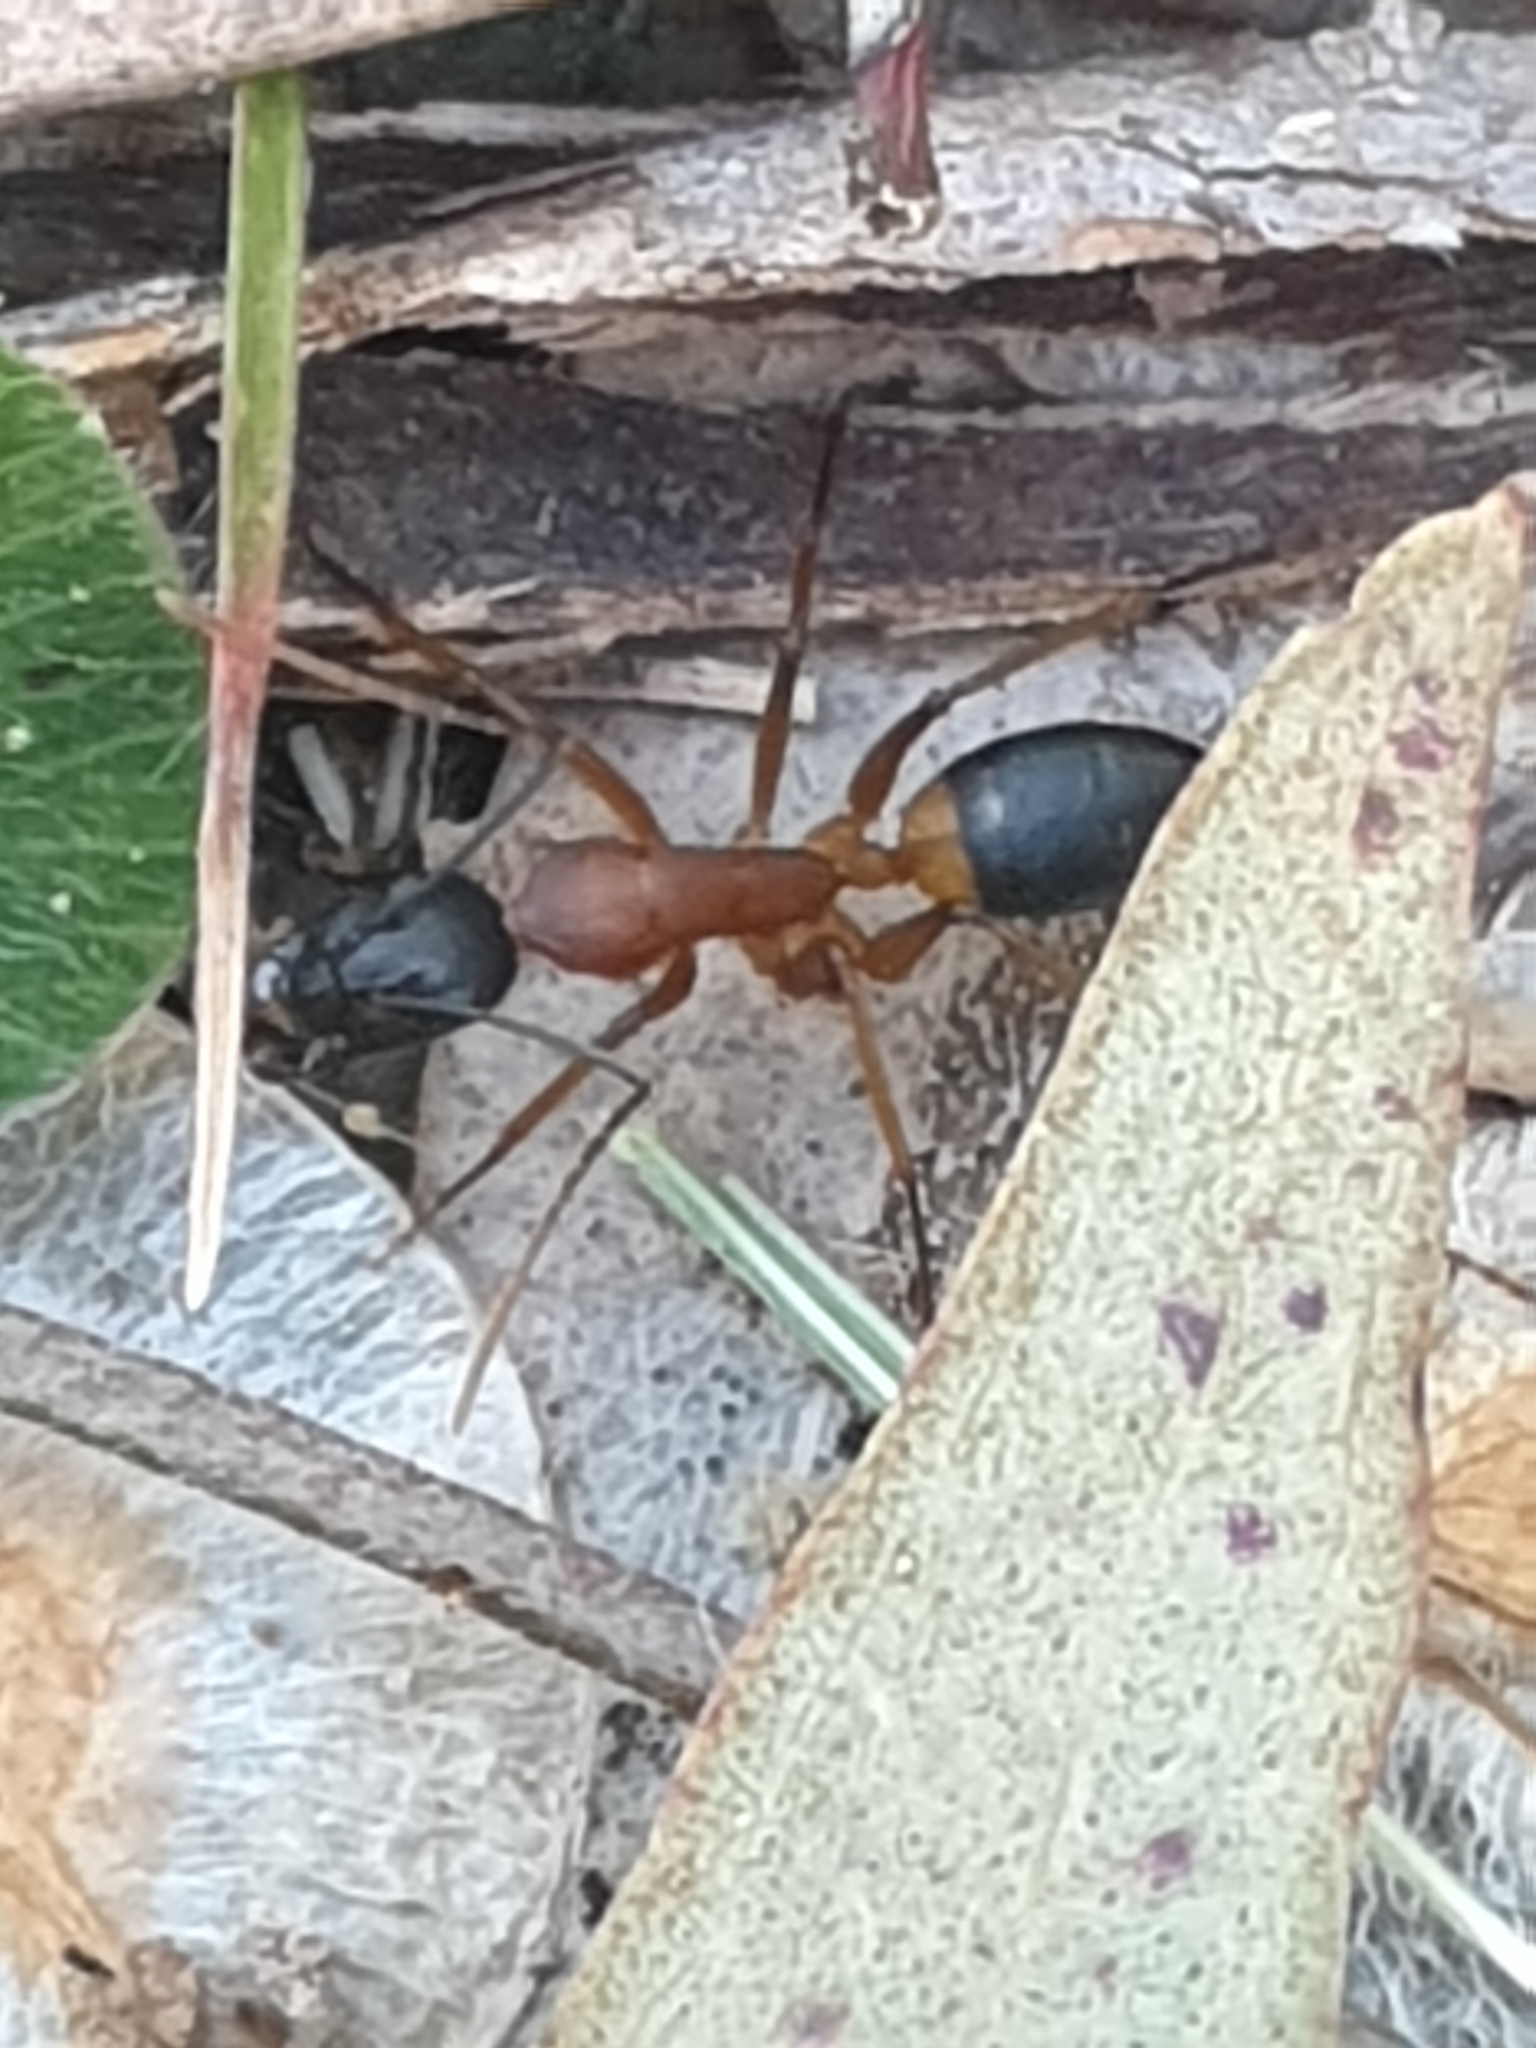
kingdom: Animalia
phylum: Arthropoda
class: Insecta
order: Hymenoptera
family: Formicidae
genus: Camponotus
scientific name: Camponotus consobrinus
